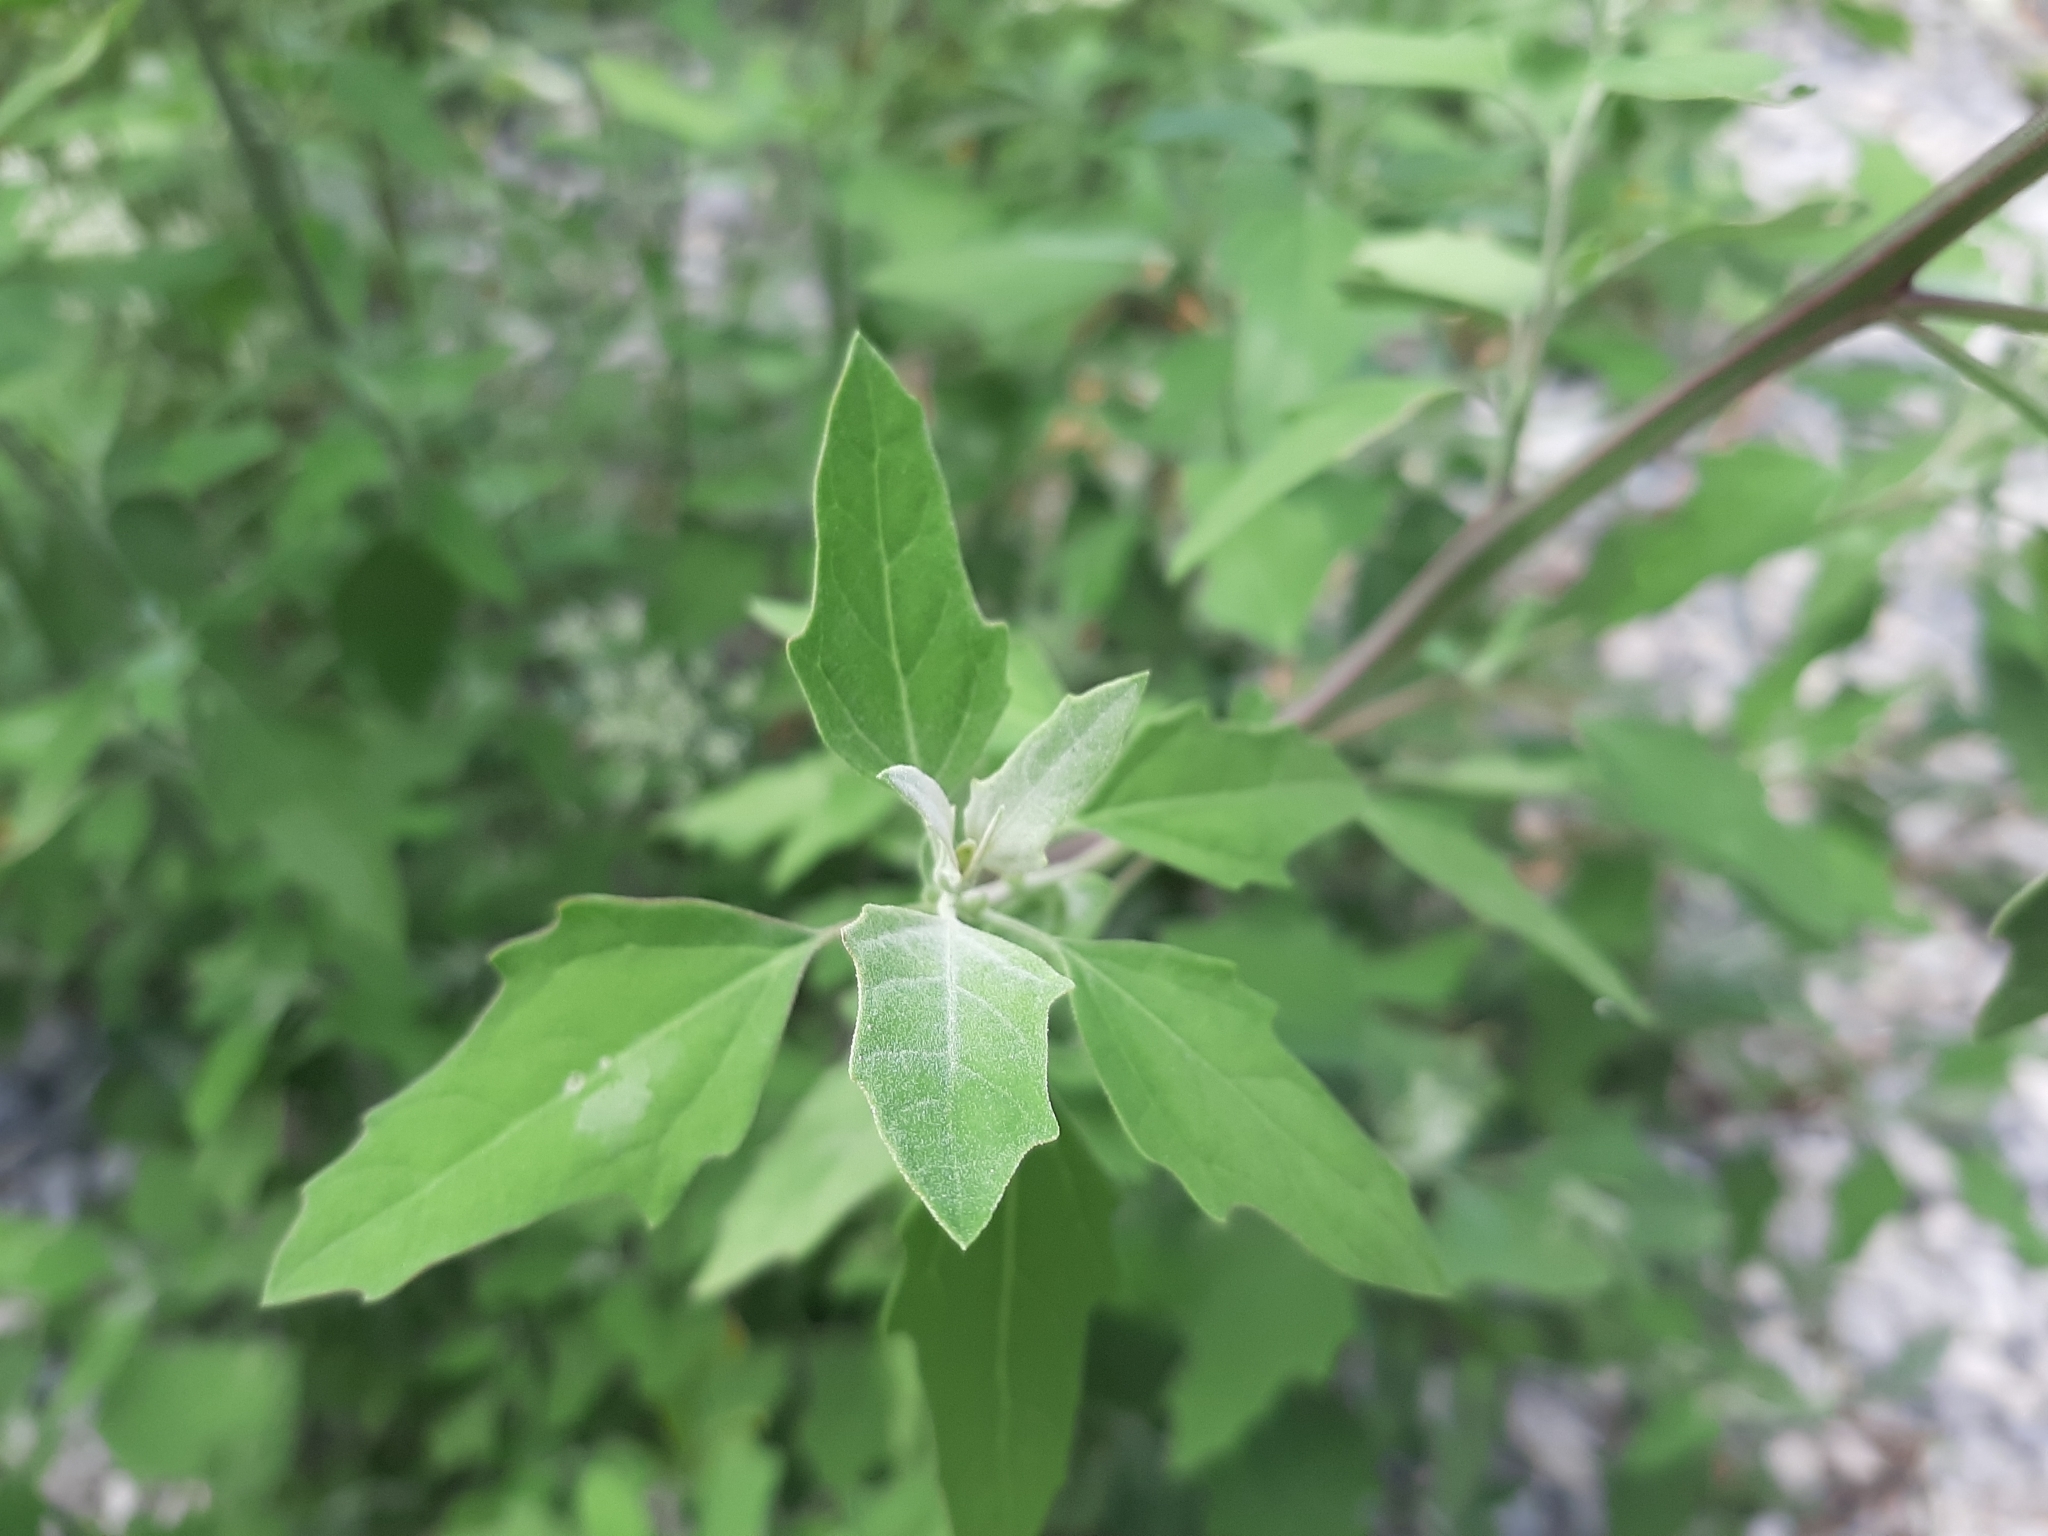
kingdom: Plantae
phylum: Tracheophyta
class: Magnoliopsida
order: Caryophyllales
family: Amaranthaceae
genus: Chenopodium
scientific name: Chenopodium album
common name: Fat-hen
